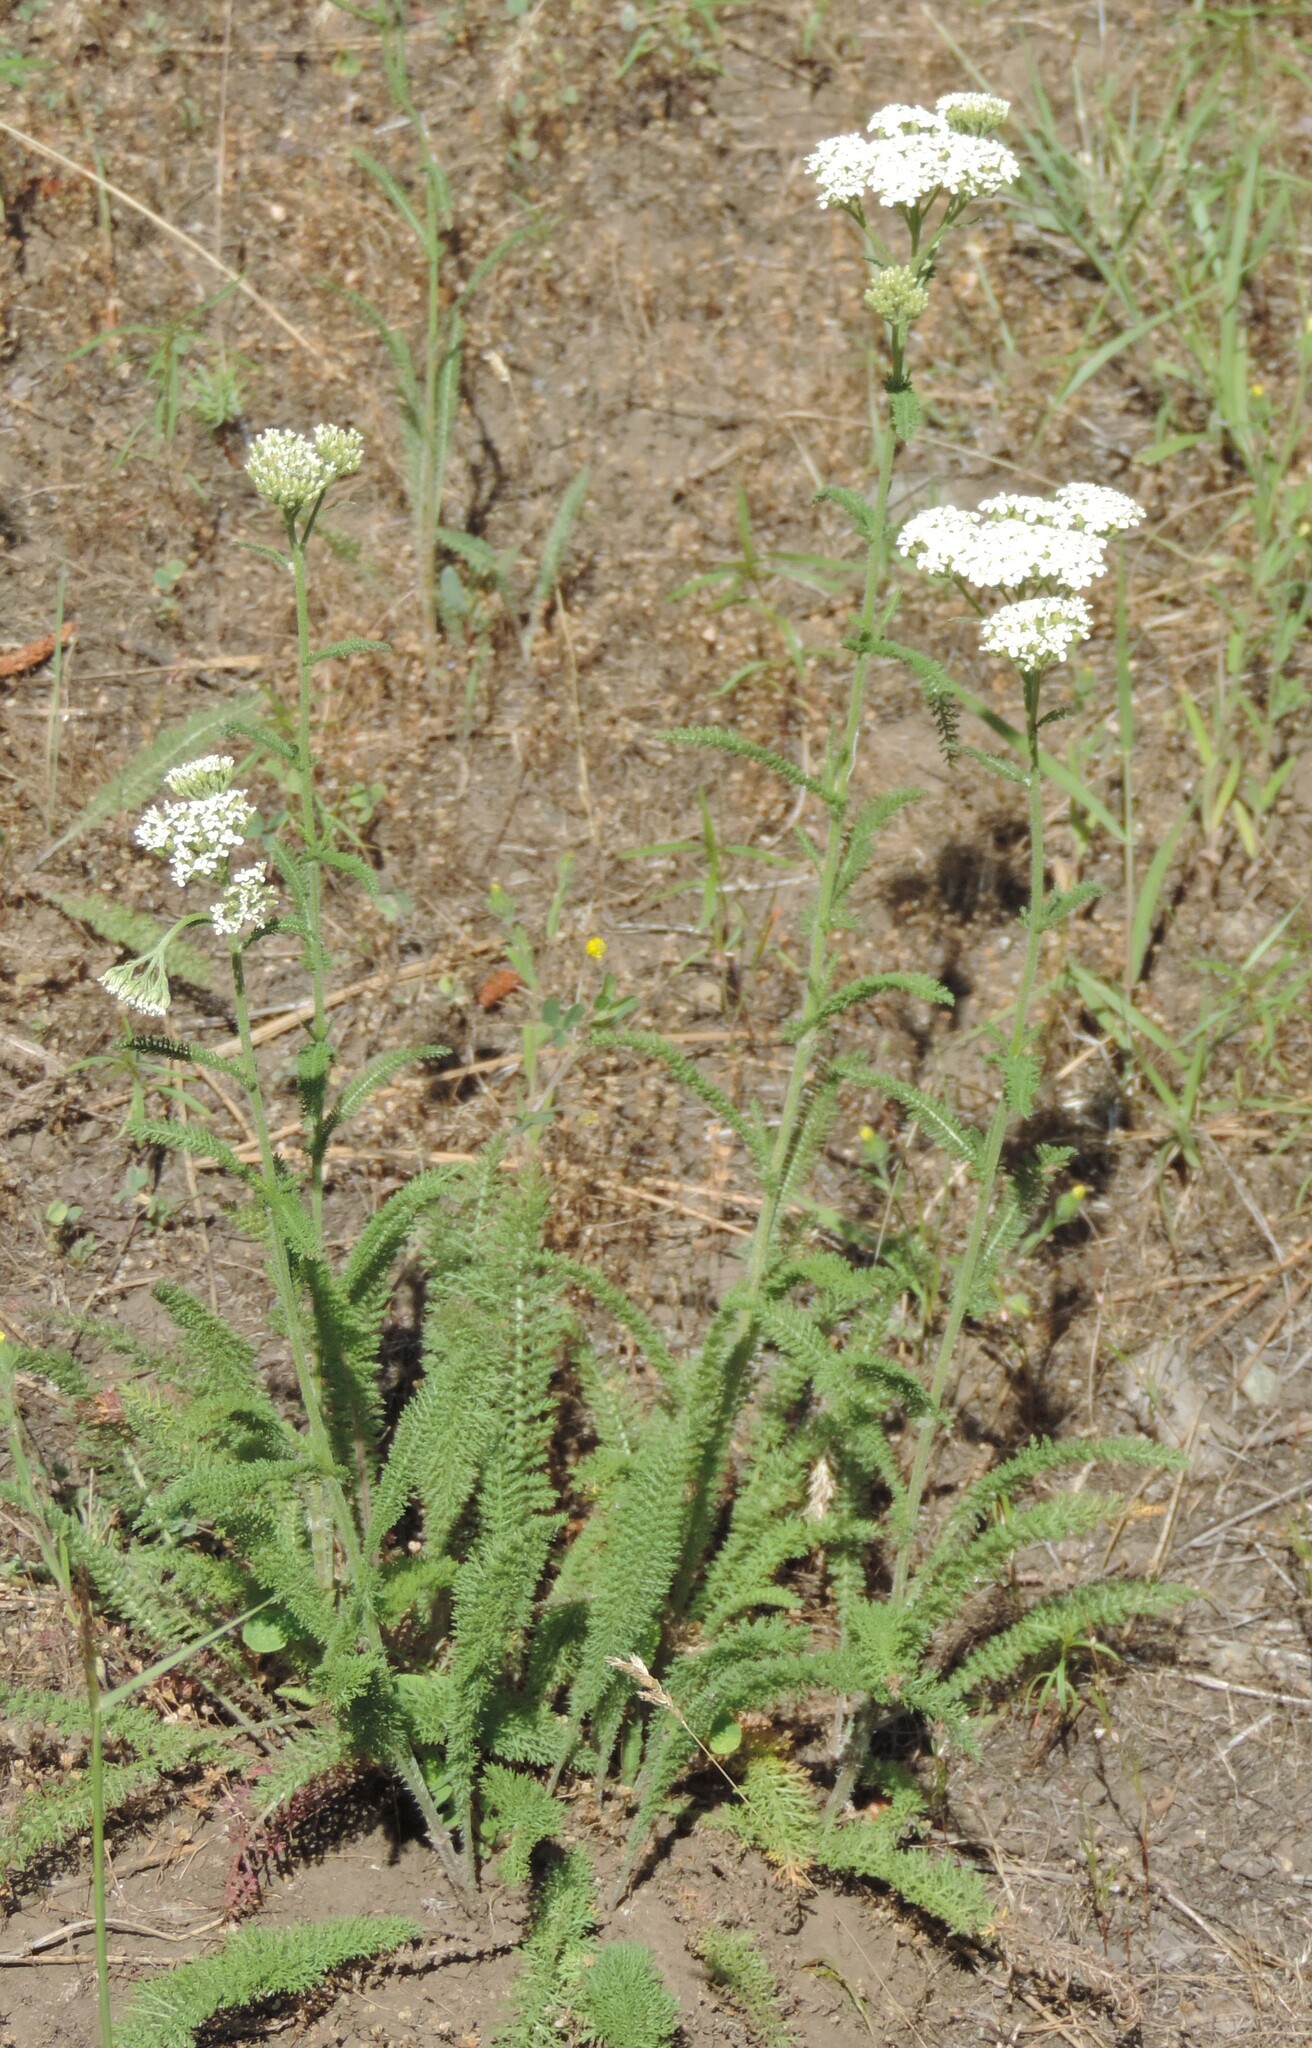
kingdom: Plantae
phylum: Tracheophyta
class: Magnoliopsida
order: Asterales
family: Asteraceae
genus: Achillea
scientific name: Achillea millefolium
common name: Yarrow
